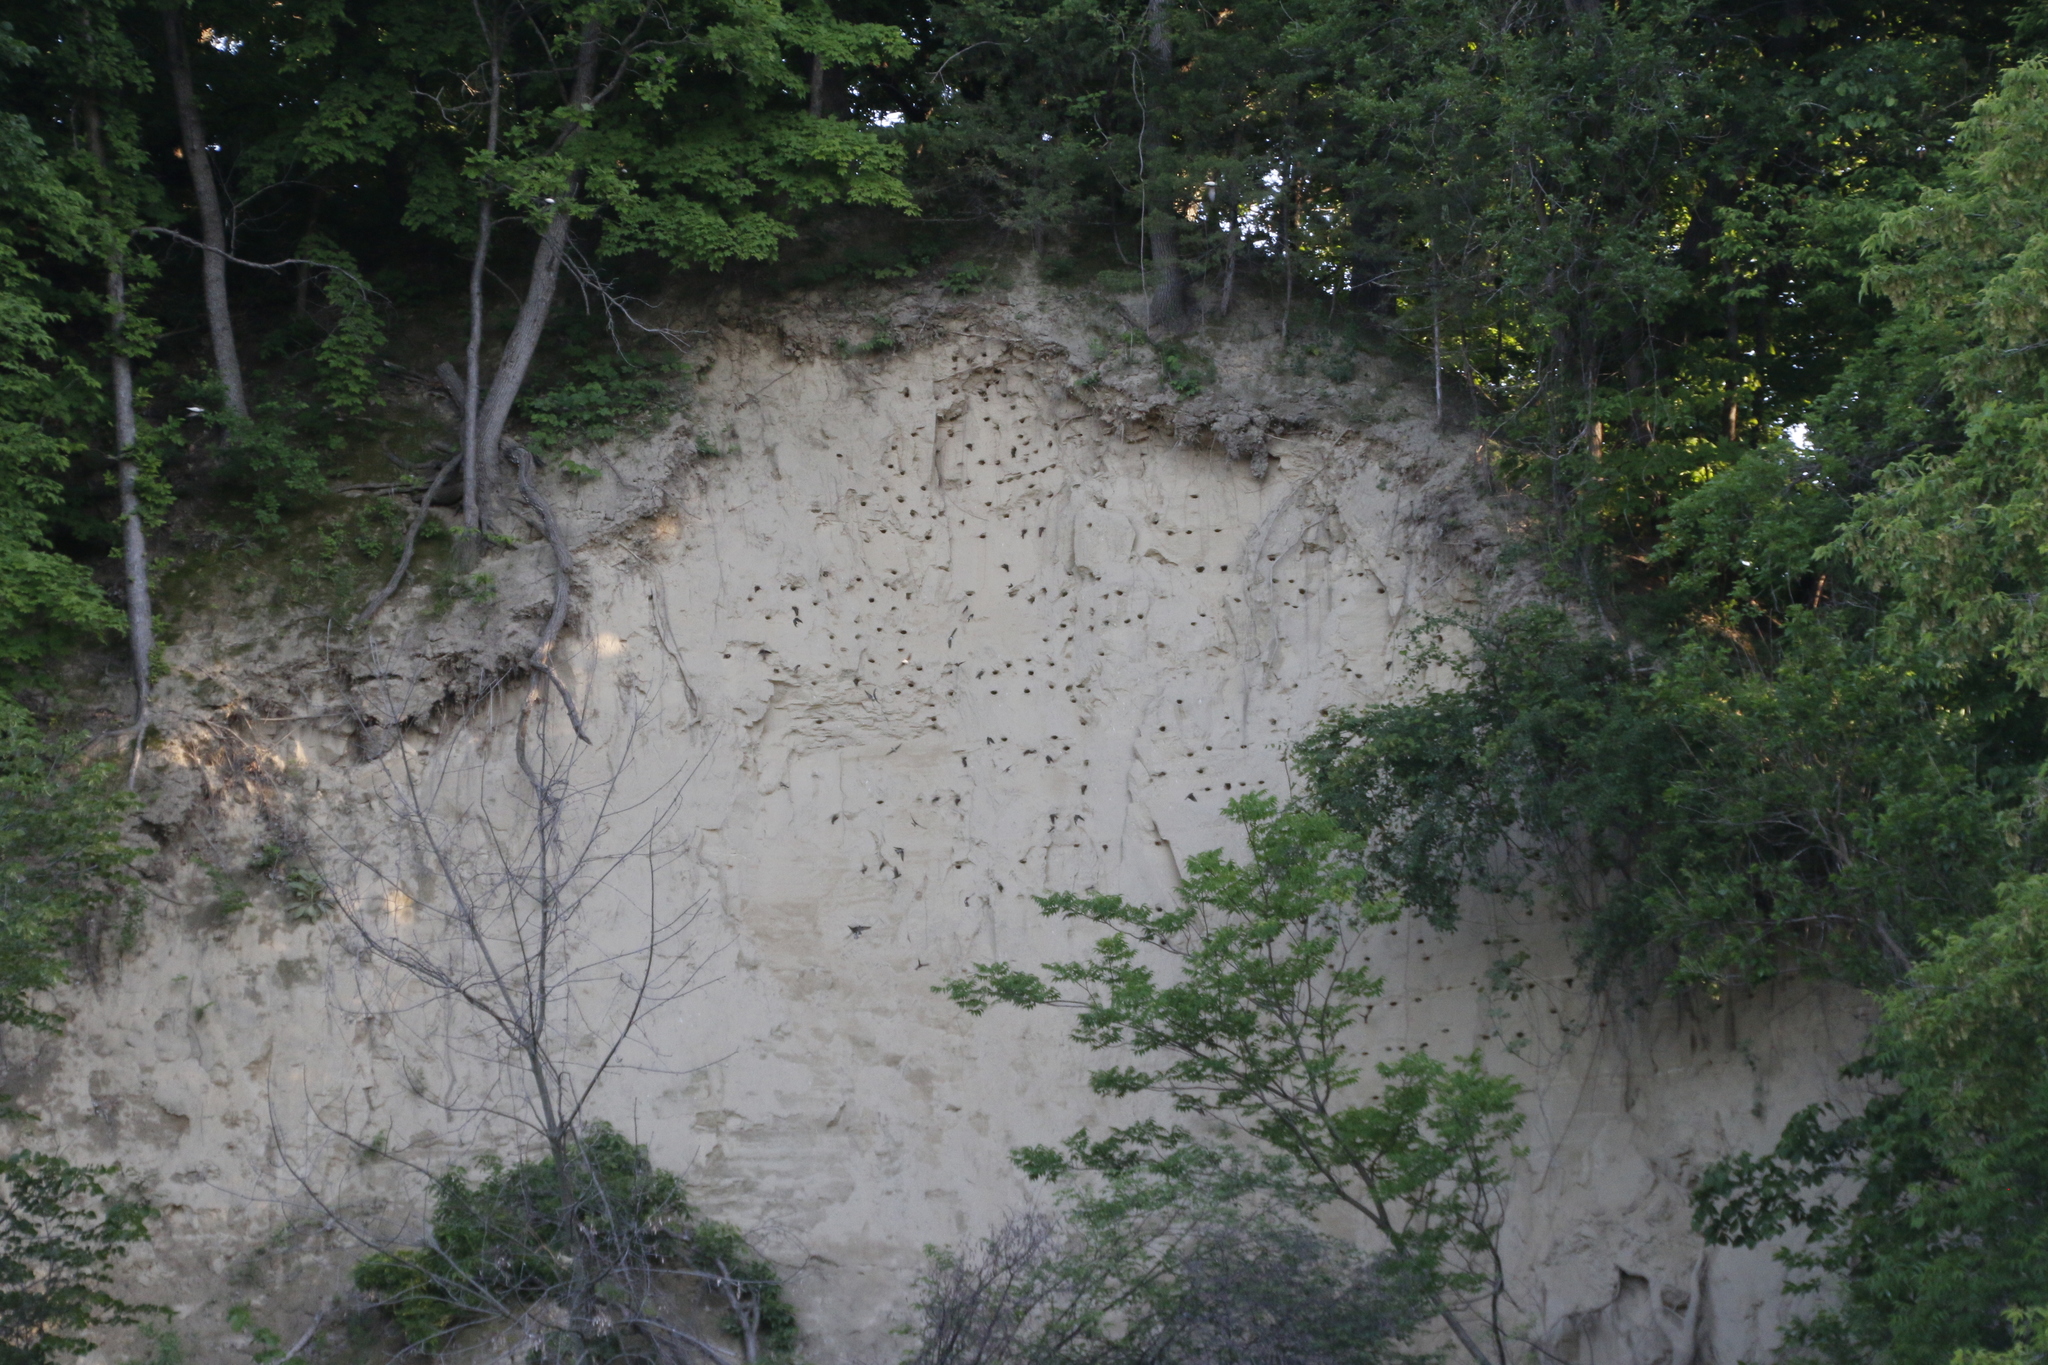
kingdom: Animalia
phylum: Chordata
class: Aves
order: Passeriformes
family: Hirundinidae
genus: Riparia
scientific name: Riparia riparia
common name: Sand martin
